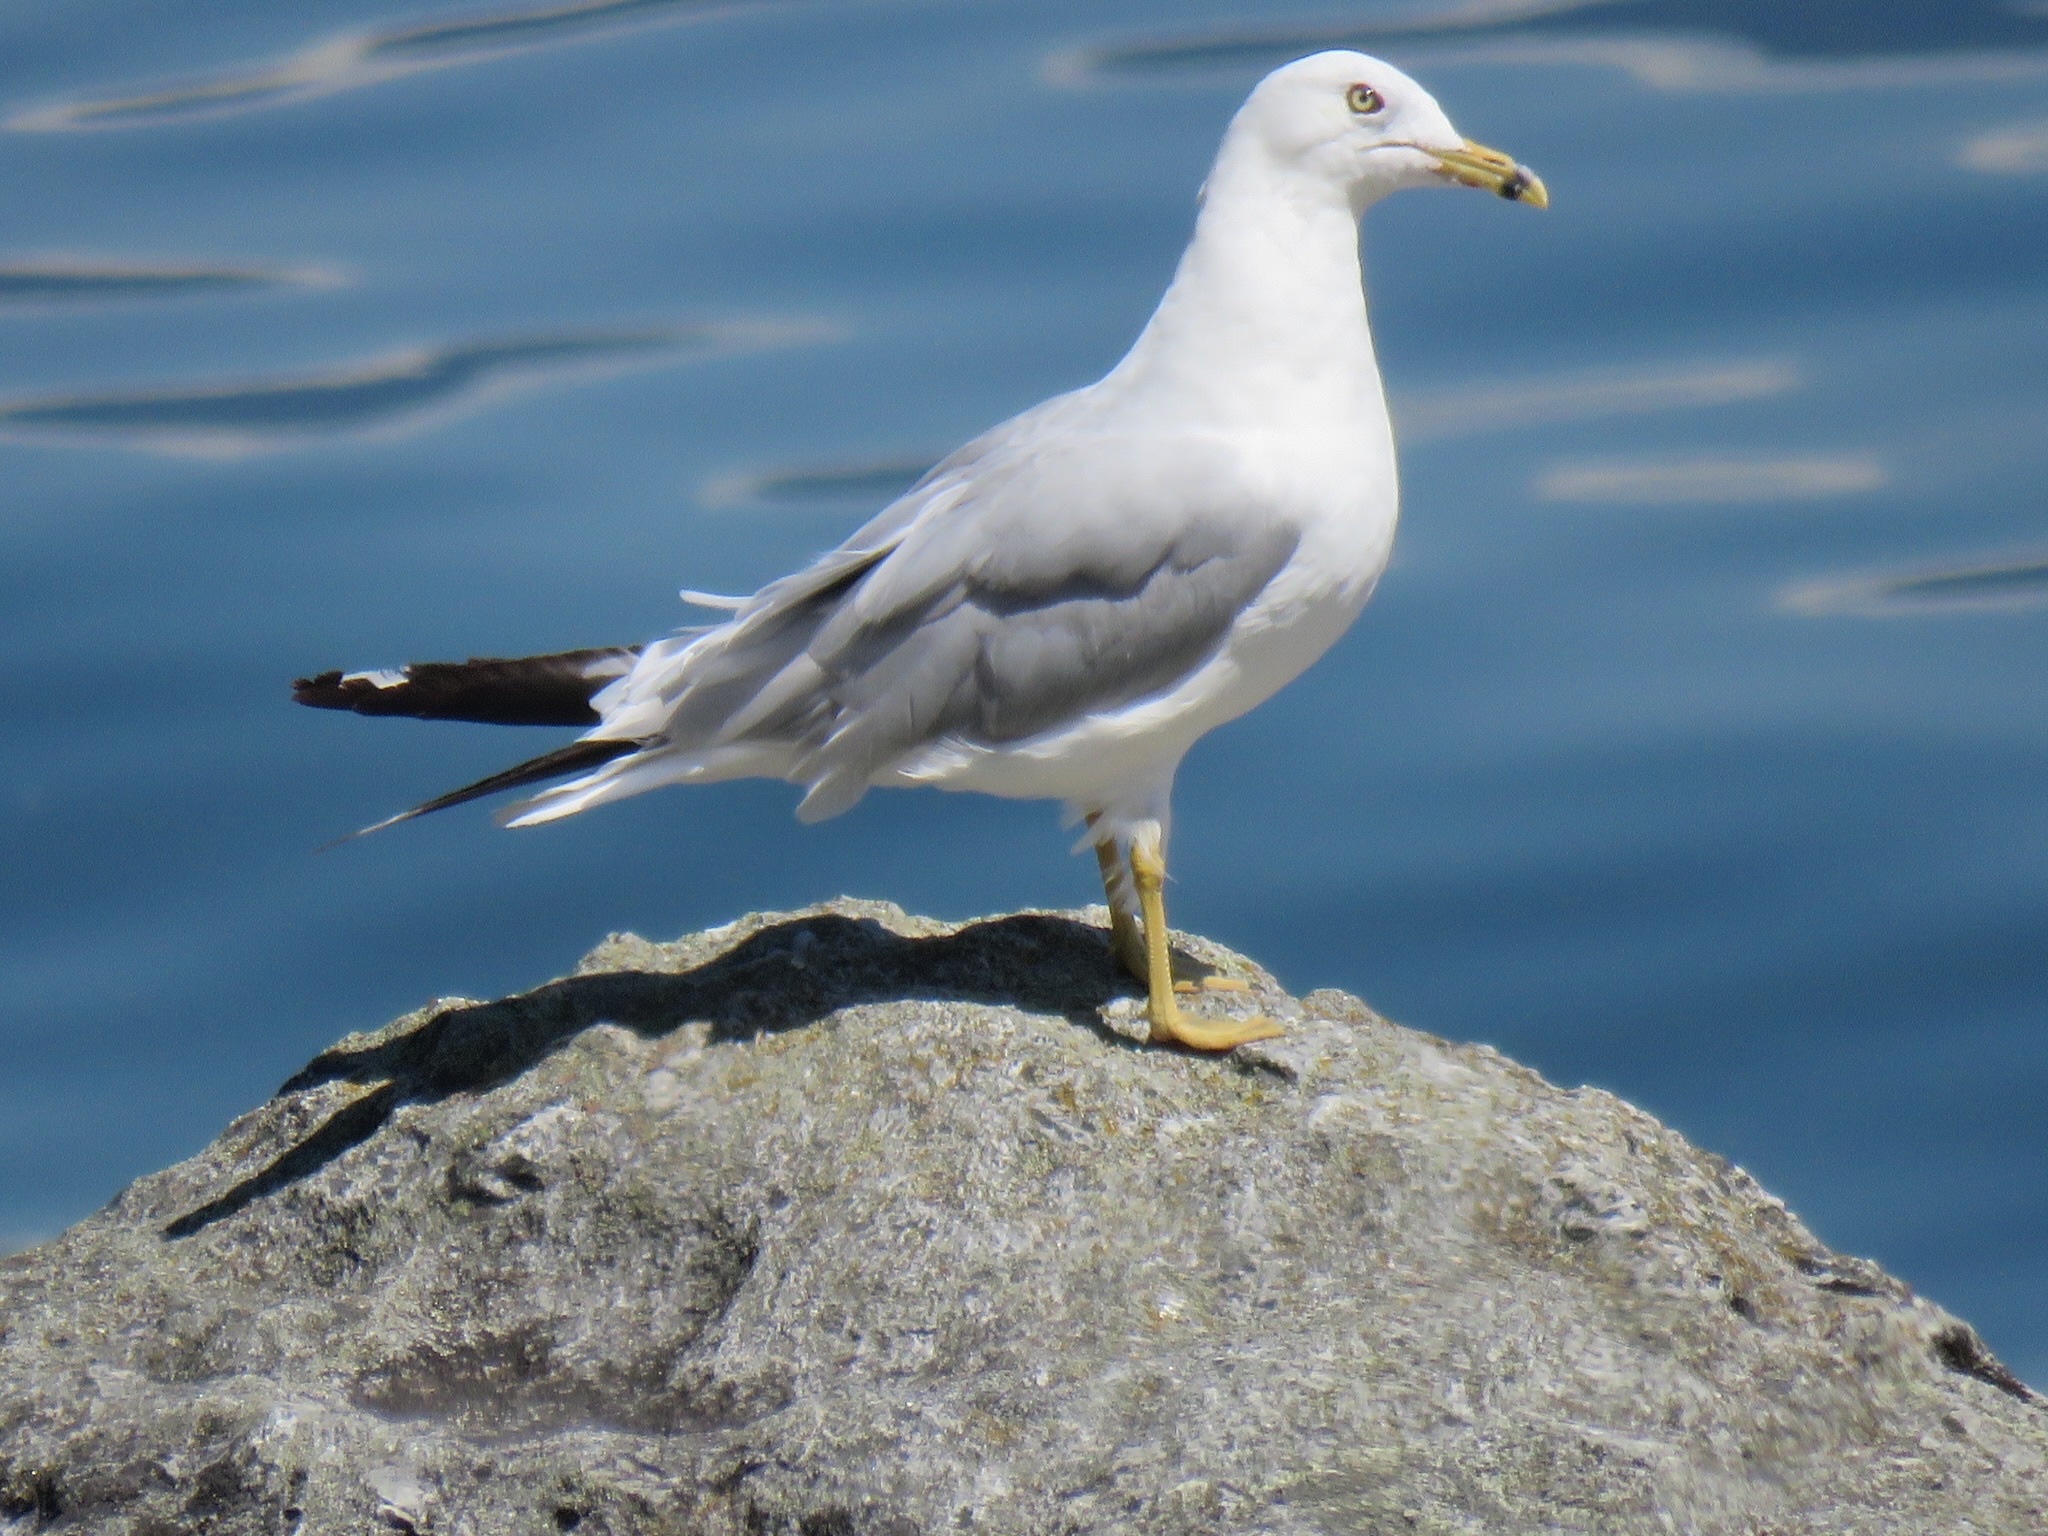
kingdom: Animalia
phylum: Chordata
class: Aves
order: Charadriiformes
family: Laridae
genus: Larus
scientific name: Larus delawarensis
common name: Ring-billed gull
